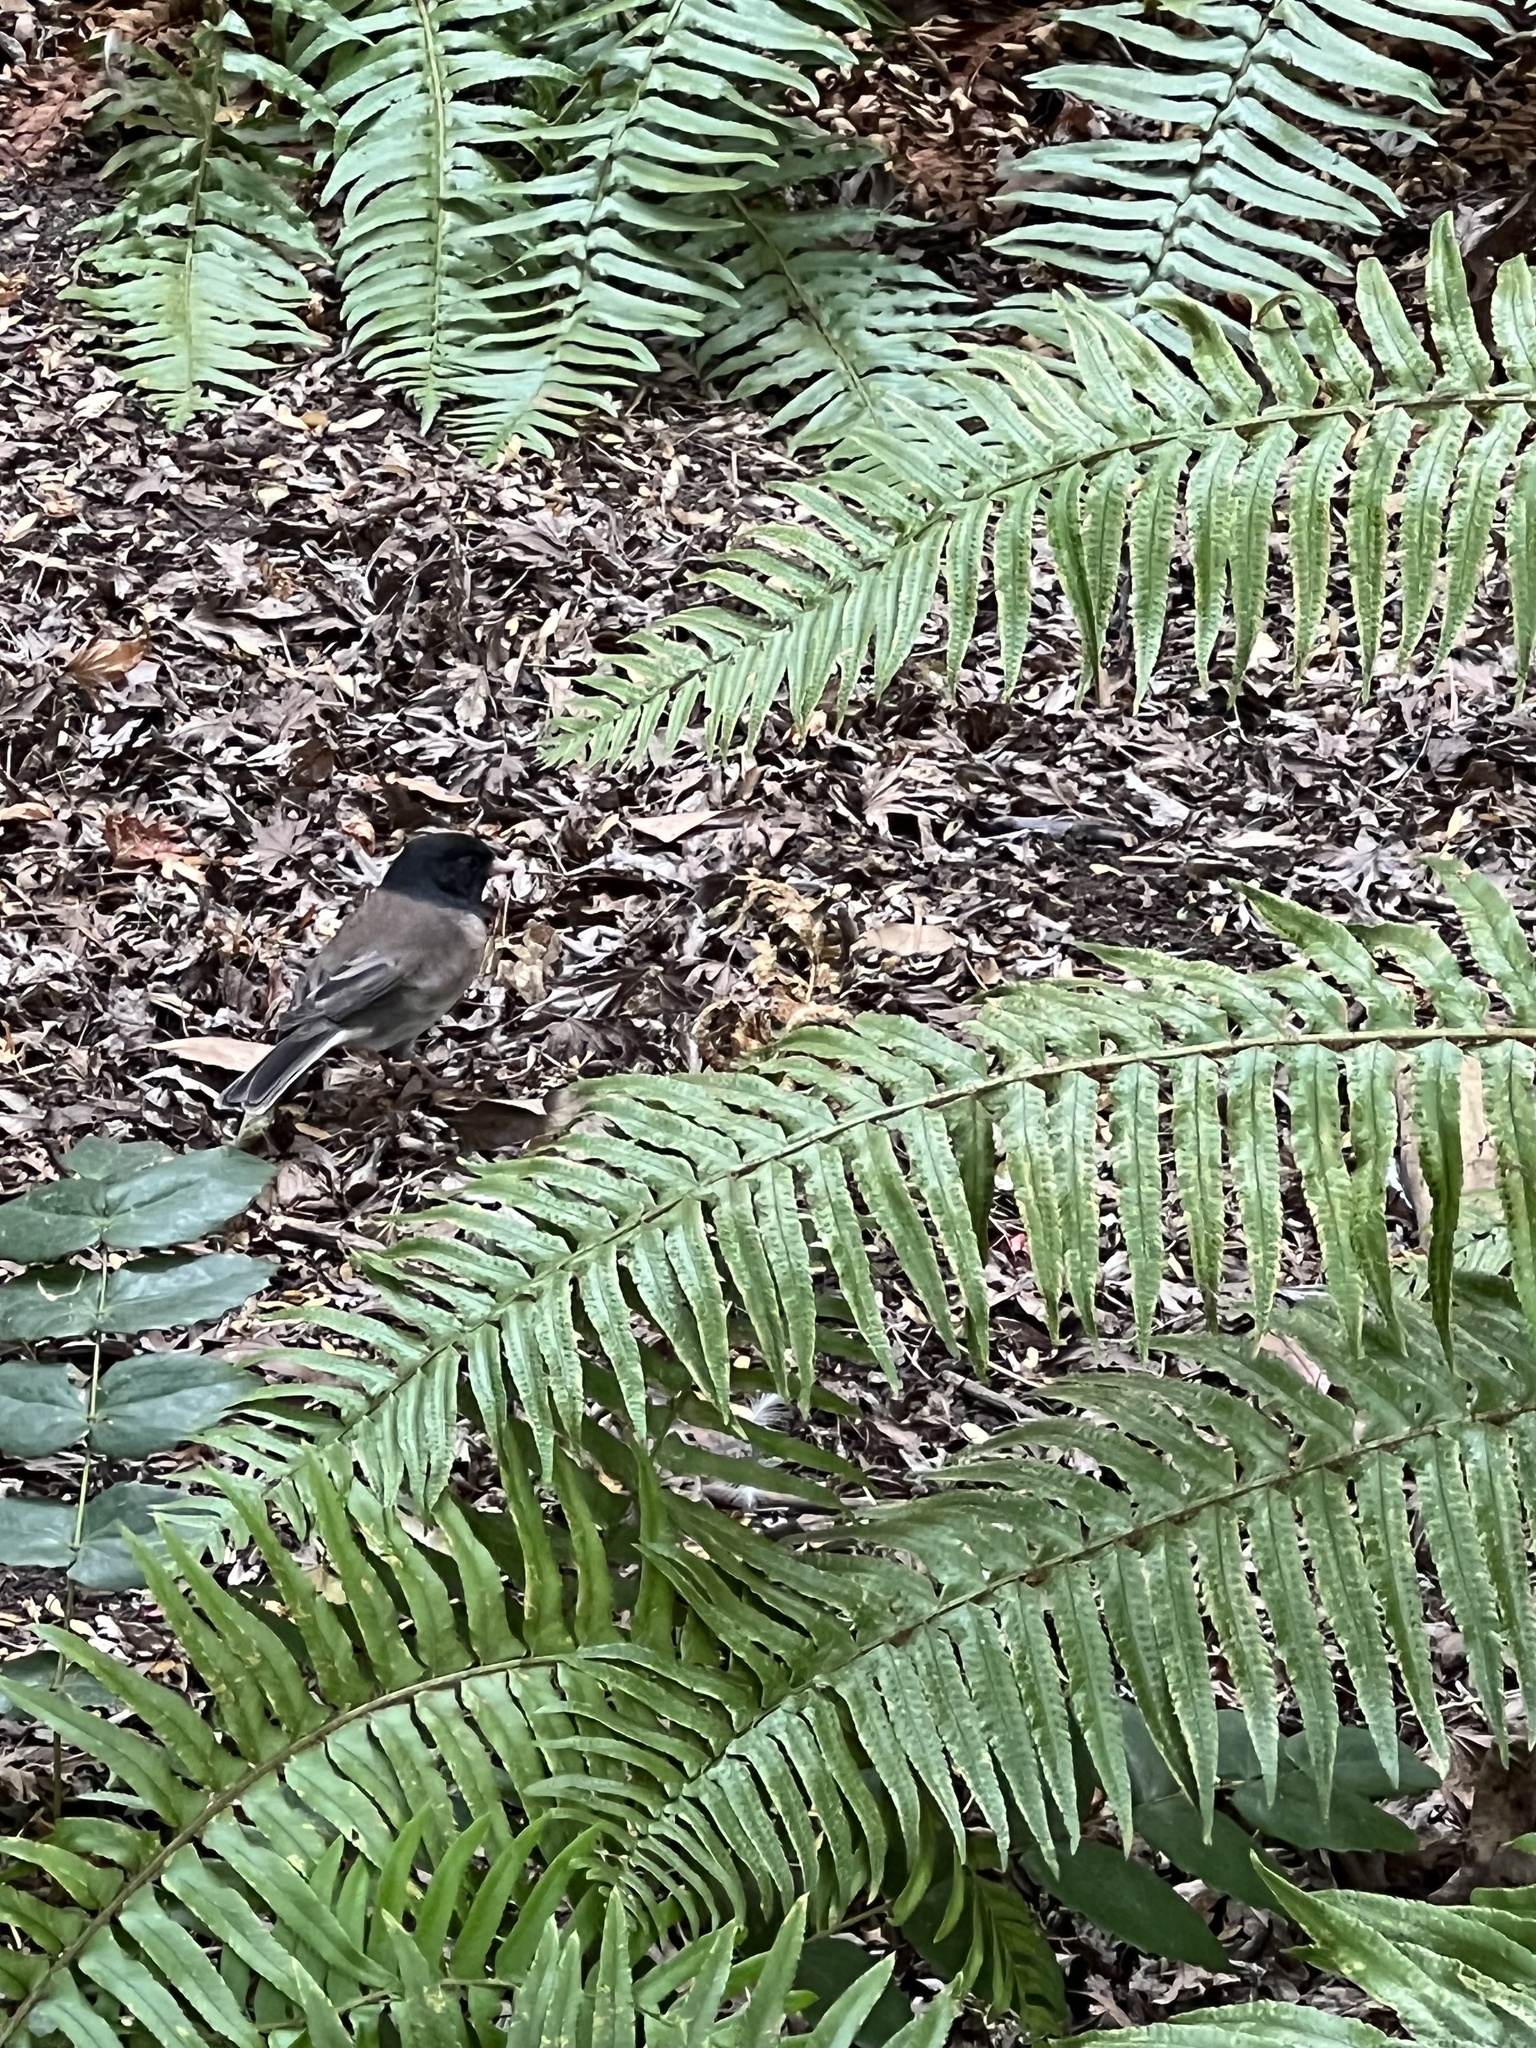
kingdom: Animalia
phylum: Chordata
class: Aves
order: Passeriformes
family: Passerellidae
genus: Junco
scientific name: Junco hyemalis
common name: Dark-eyed junco
